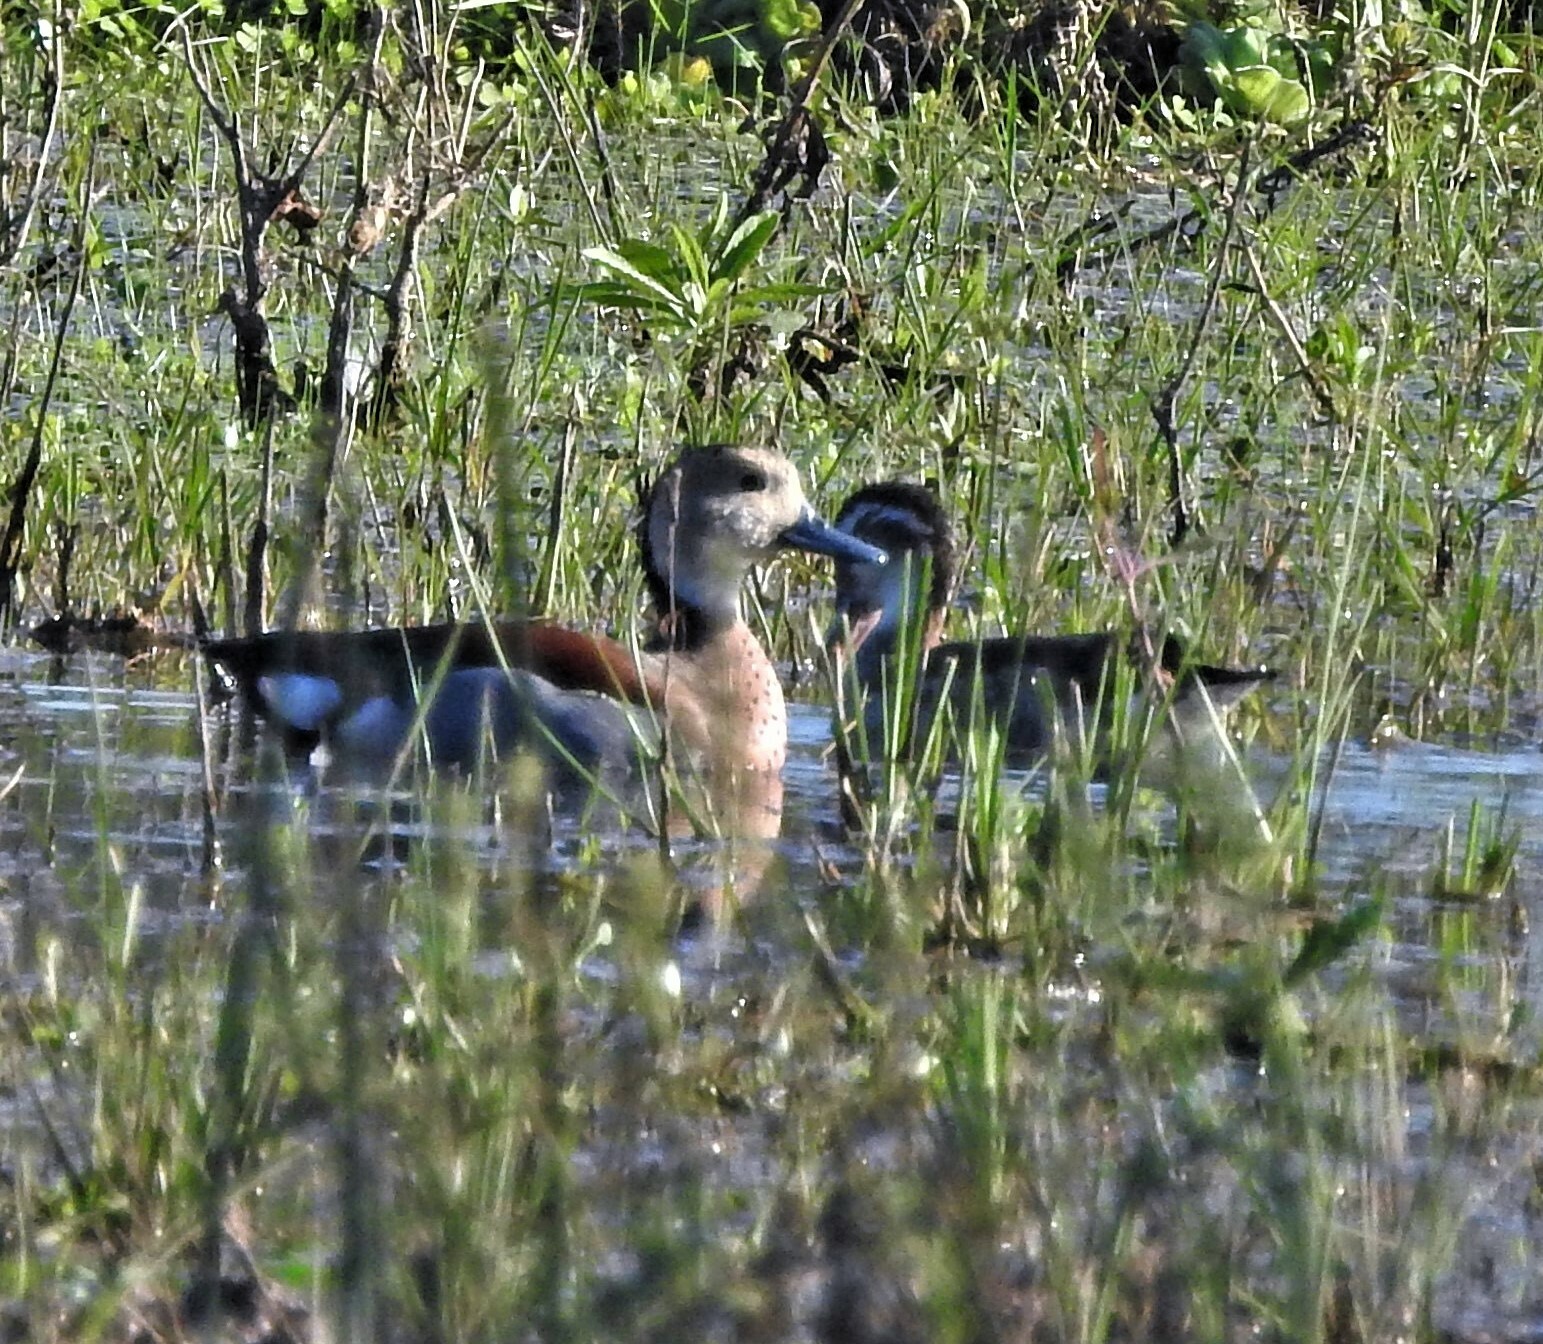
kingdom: Animalia
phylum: Chordata
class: Aves
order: Anseriformes
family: Anatidae
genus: Callonetta
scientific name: Callonetta leucophrys
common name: Ringed teal
